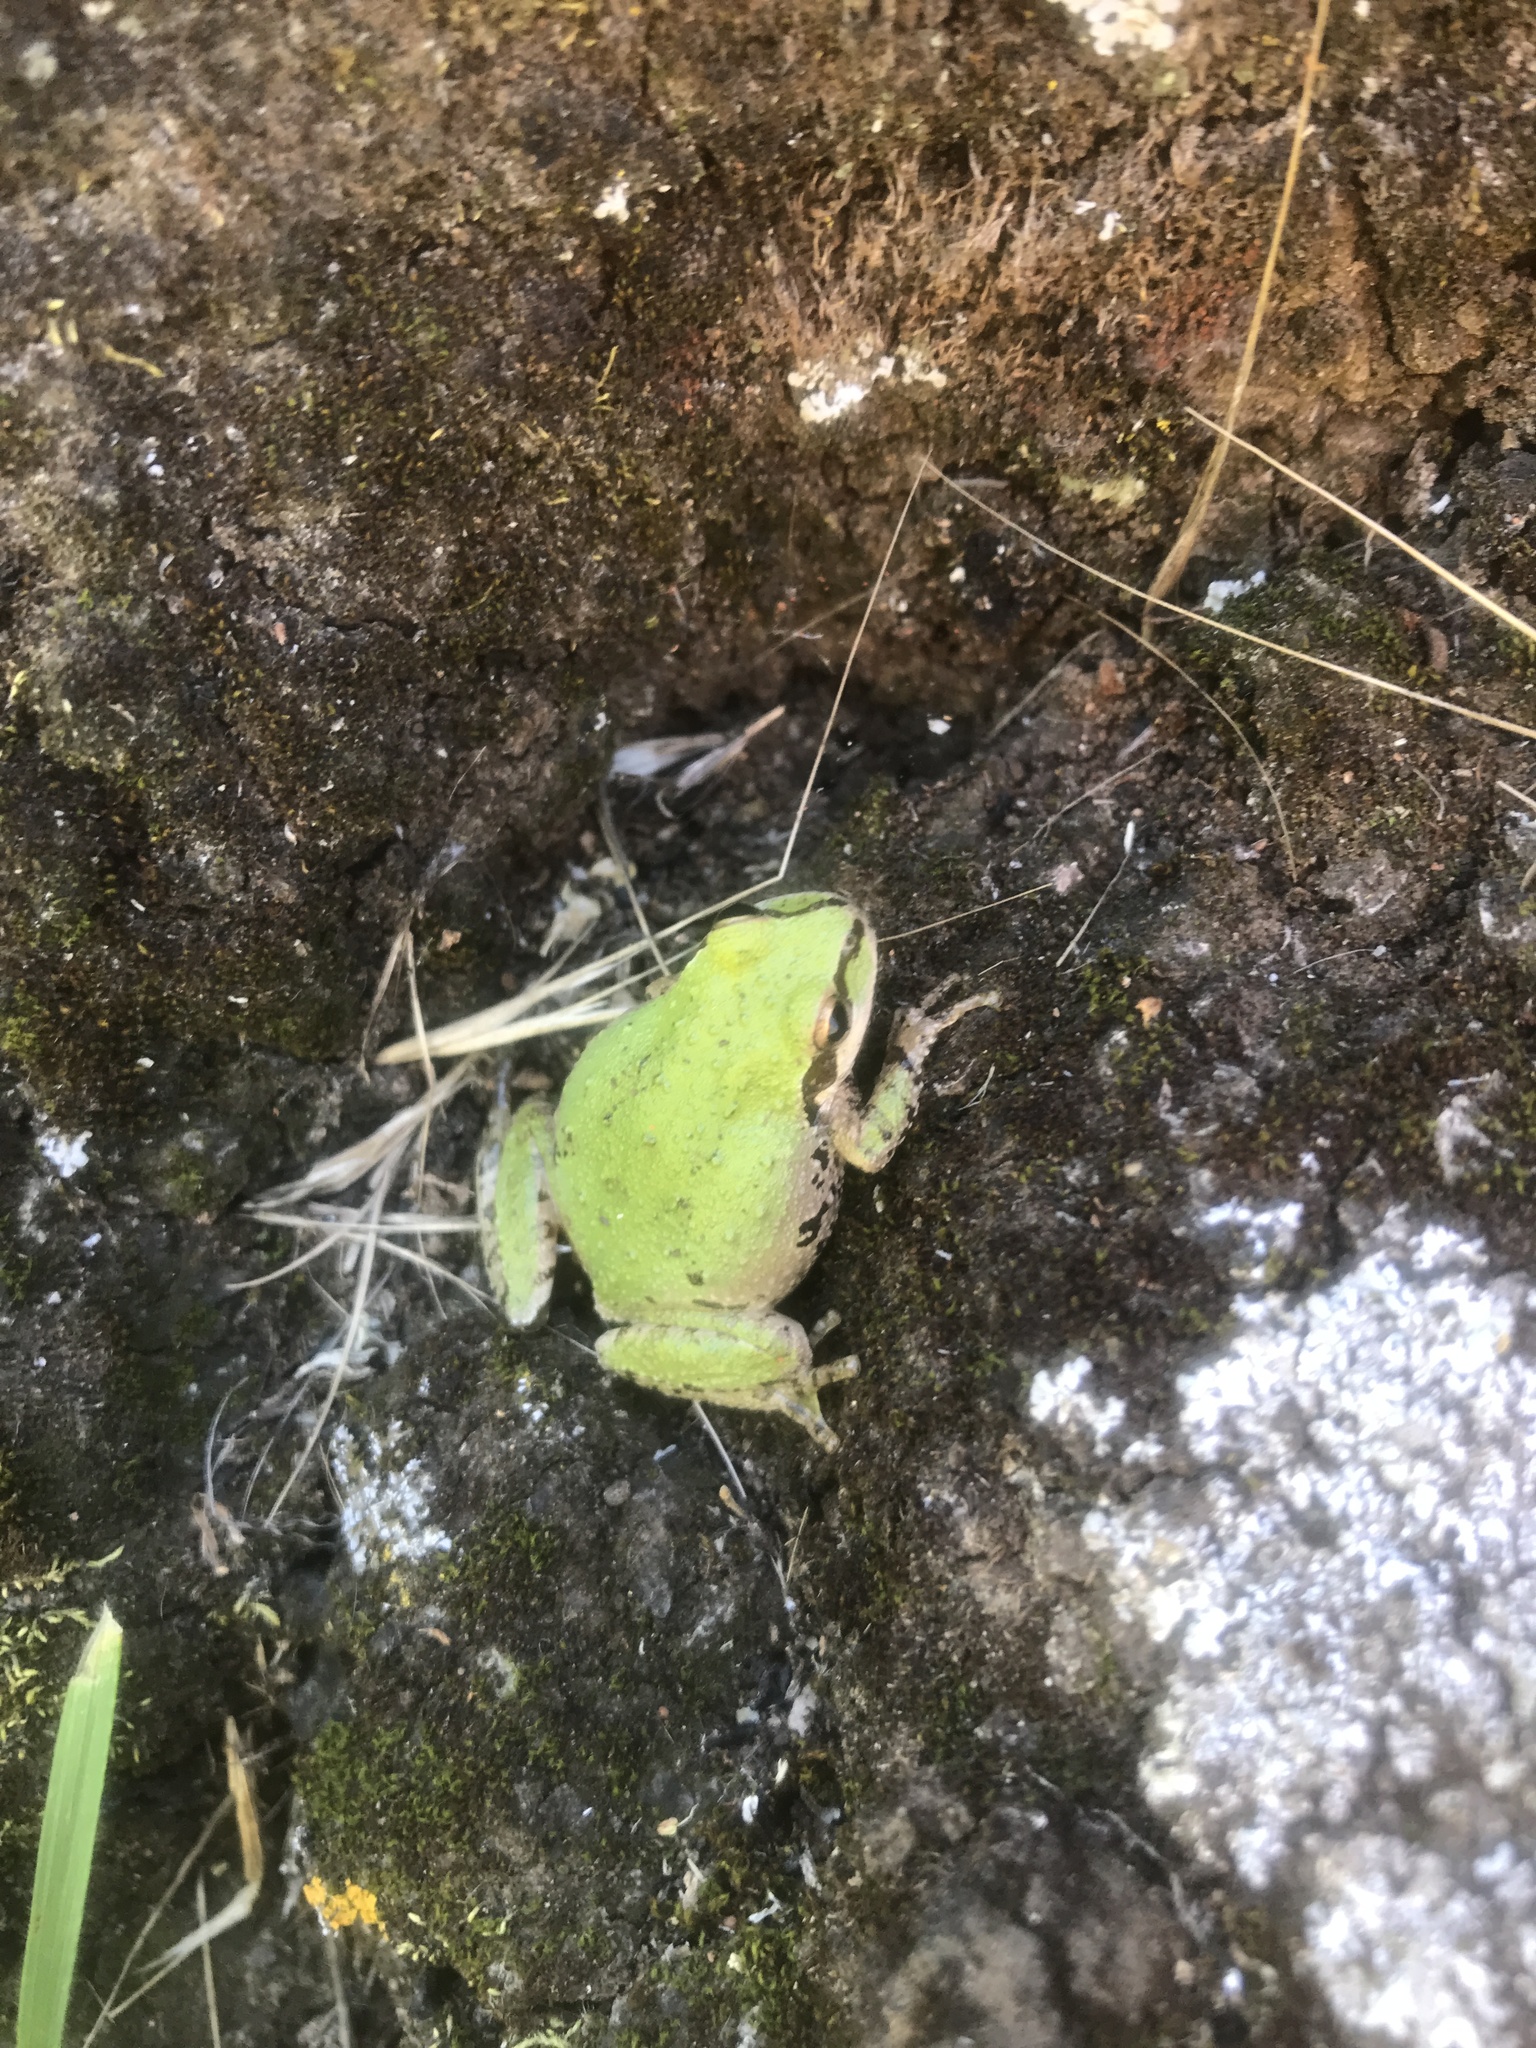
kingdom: Animalia
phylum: Chordata
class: Amphibia
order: Anura
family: Hylidae
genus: Pseudacris
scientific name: Pseudacris regilla
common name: Pacific chorus frog
